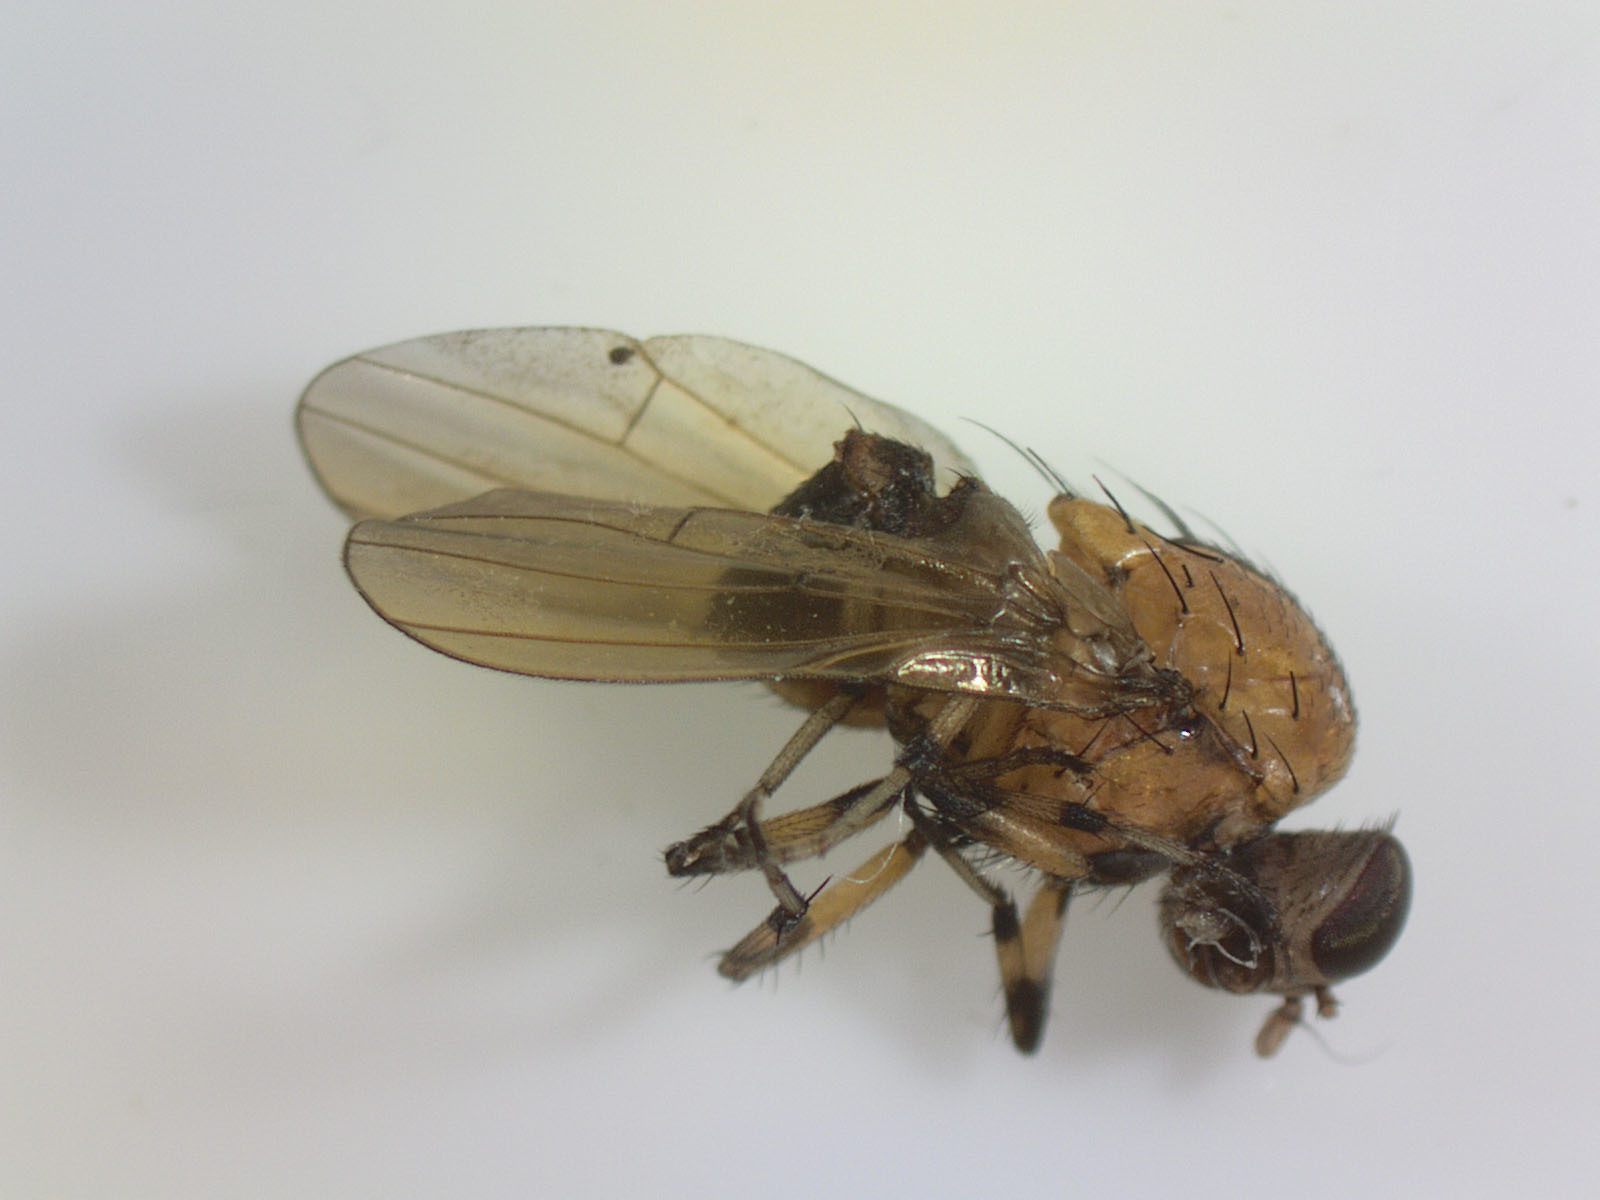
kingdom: Animalia
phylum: Arthropoda
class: Insecta
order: Diptera
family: Lauxaniidae
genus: Sapromyza
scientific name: Sapromyza neozelandica
